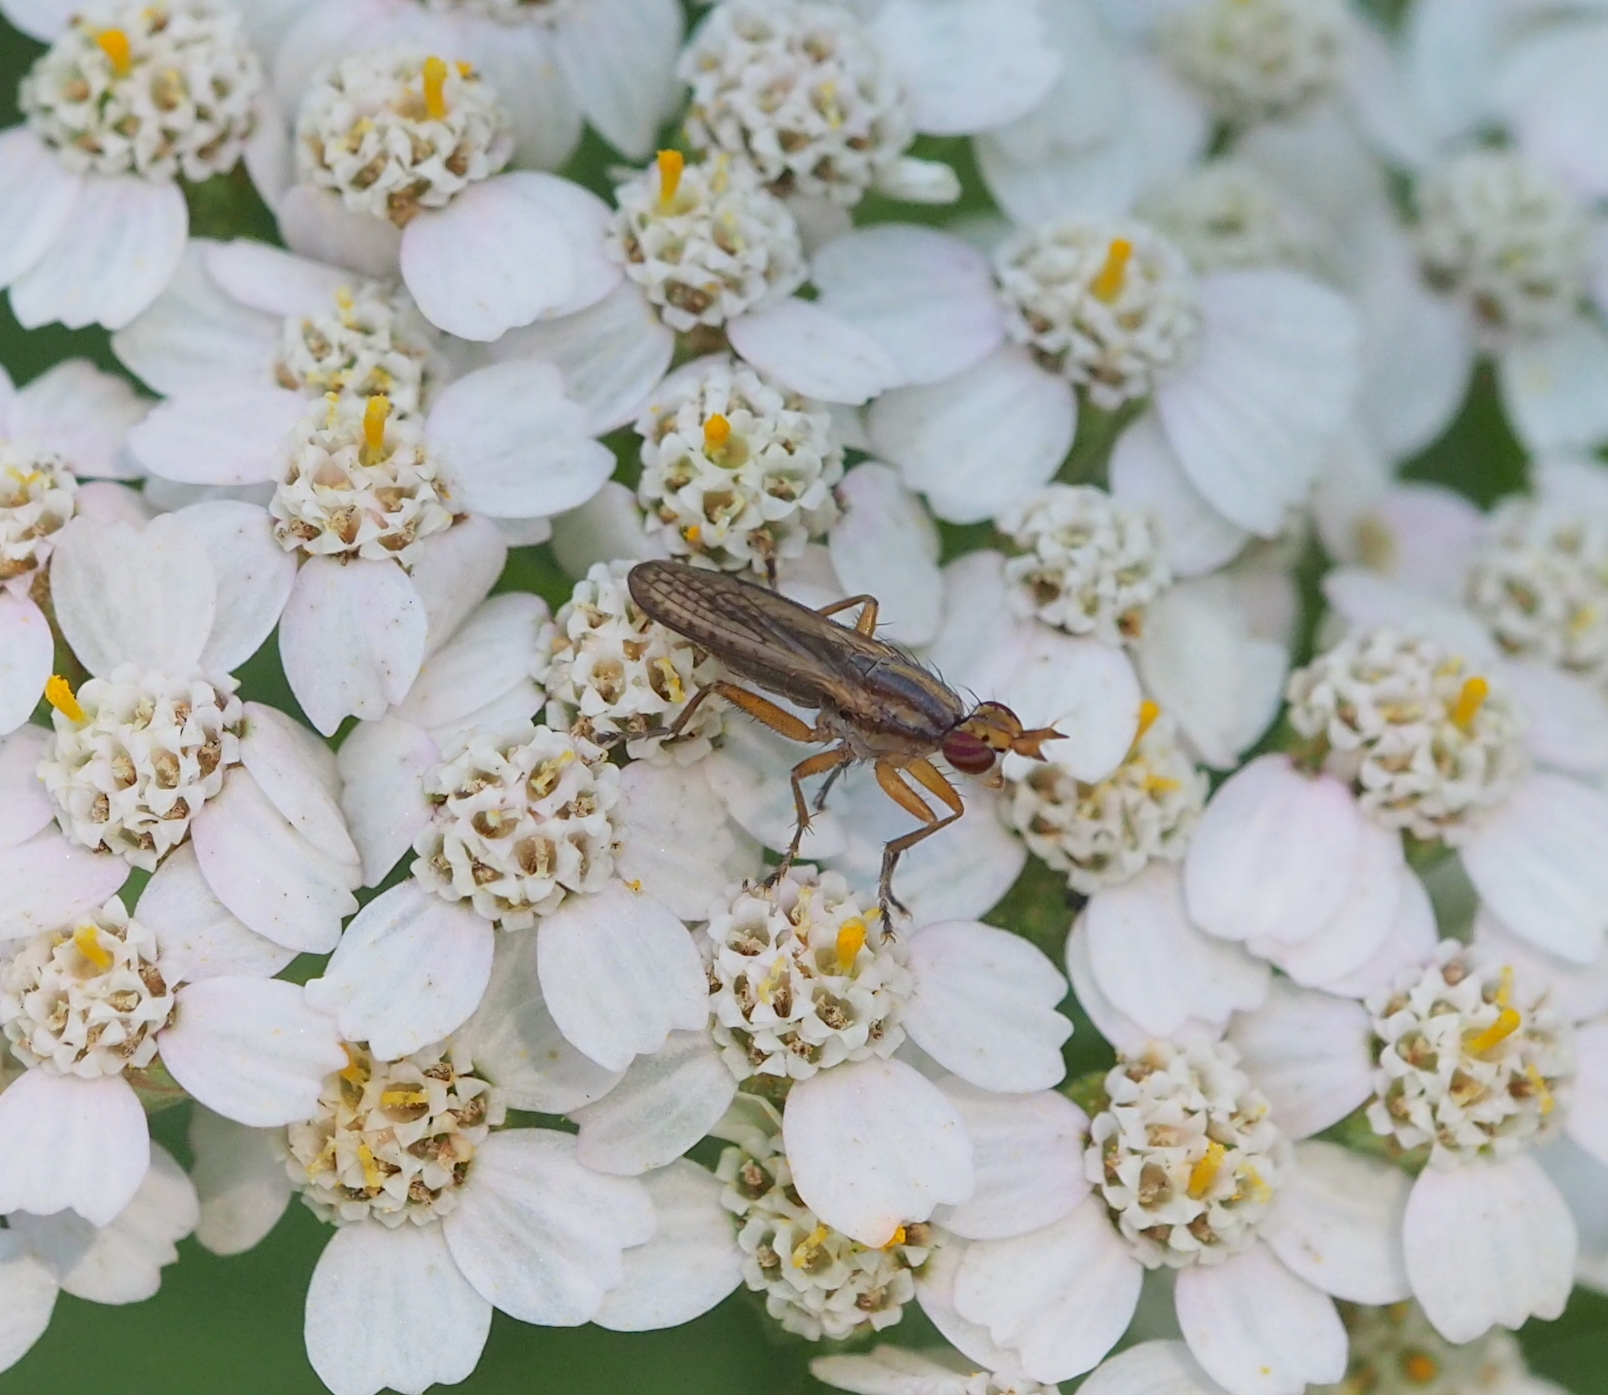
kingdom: Animalia
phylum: Arthropoda
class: Insecta
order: Diptera
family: Sciomyzidae
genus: Limnia
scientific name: Limnia unguicornis
